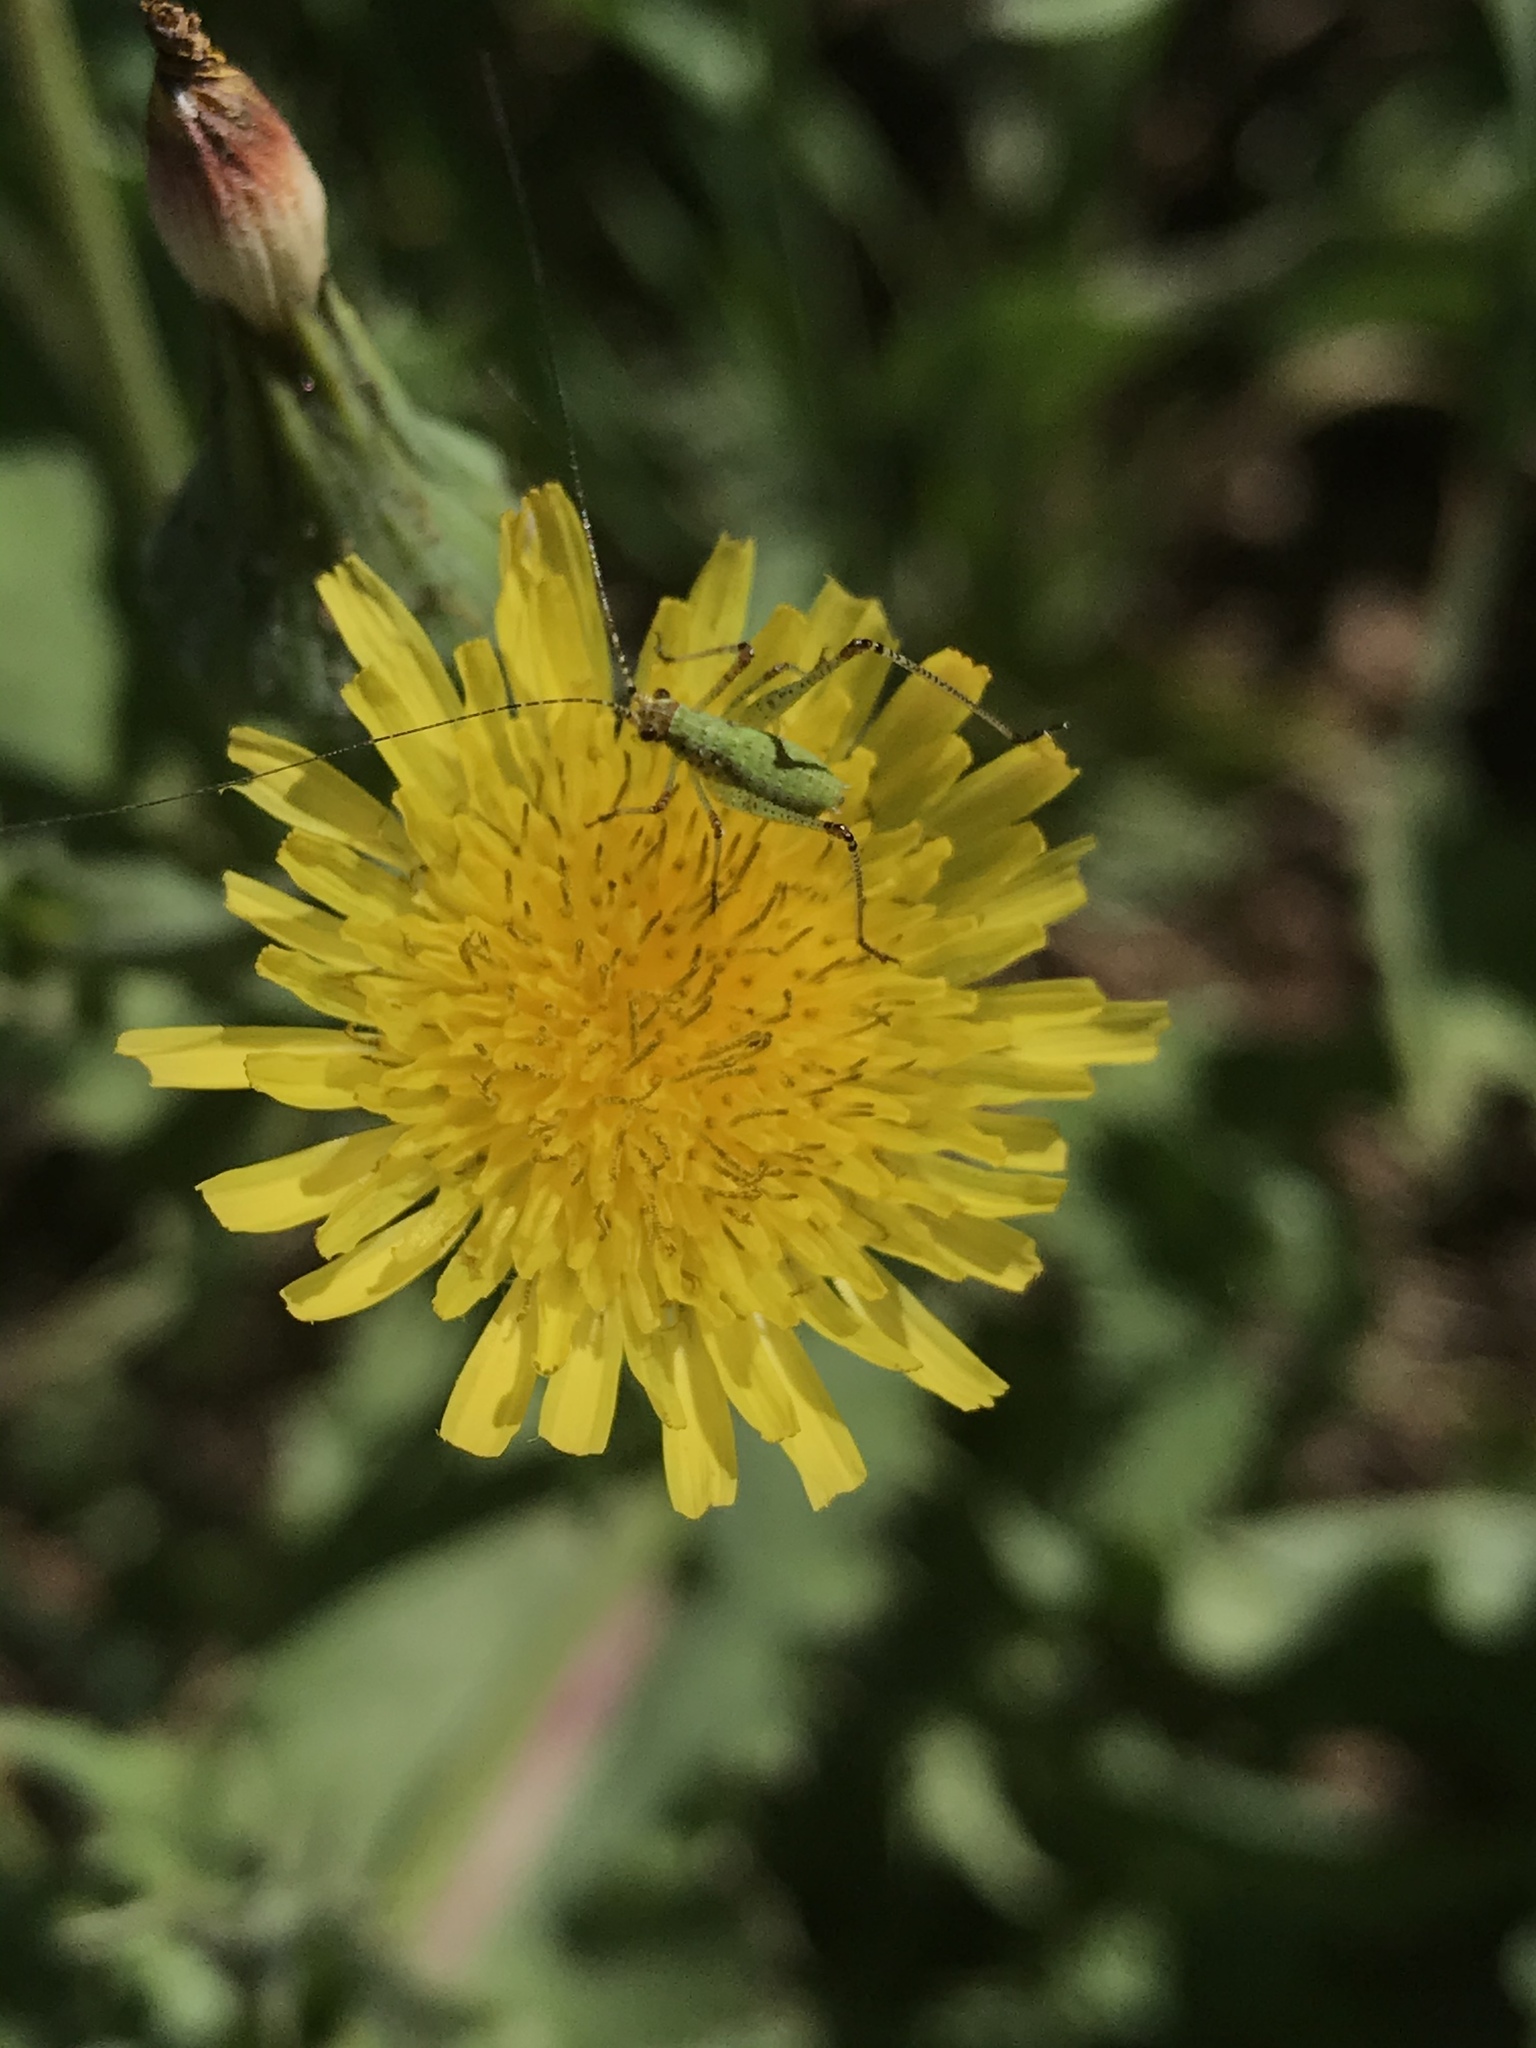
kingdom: Animalia
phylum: Arthropoda
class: Insecta
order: Orthoptera
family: Tettigoniidae
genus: Phaneroptera
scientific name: Phaneroptera nana
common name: Southern sickle bush-cricket
